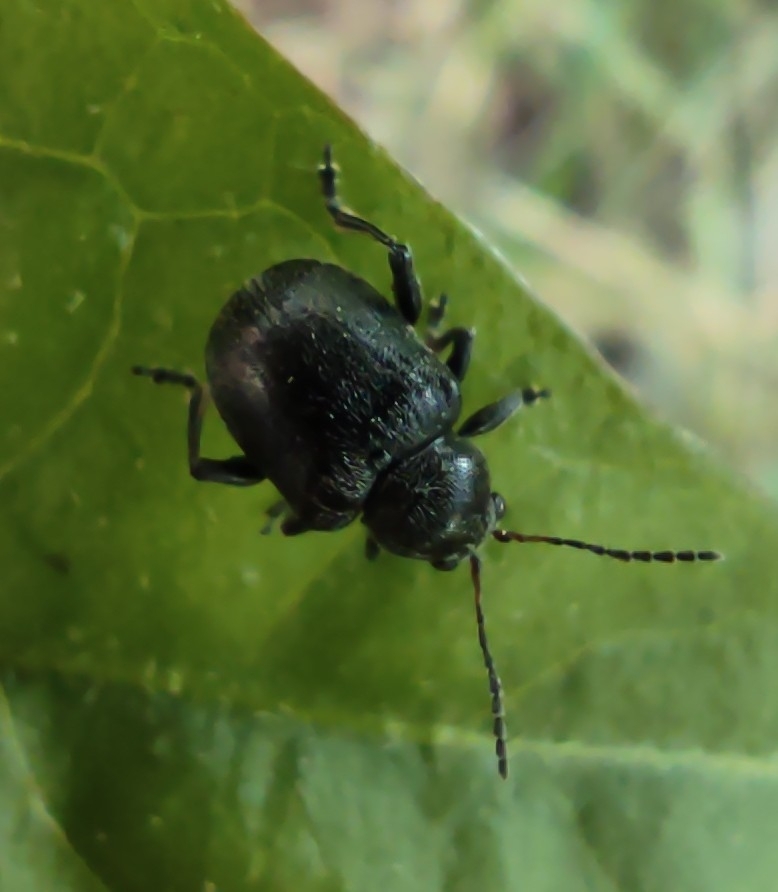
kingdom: Animalia
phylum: Arthropoda
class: Insecta
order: Coleoptera
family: Chrysomelidae
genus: Bromius
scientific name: Bromius obscurus
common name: Western grape rootworm
